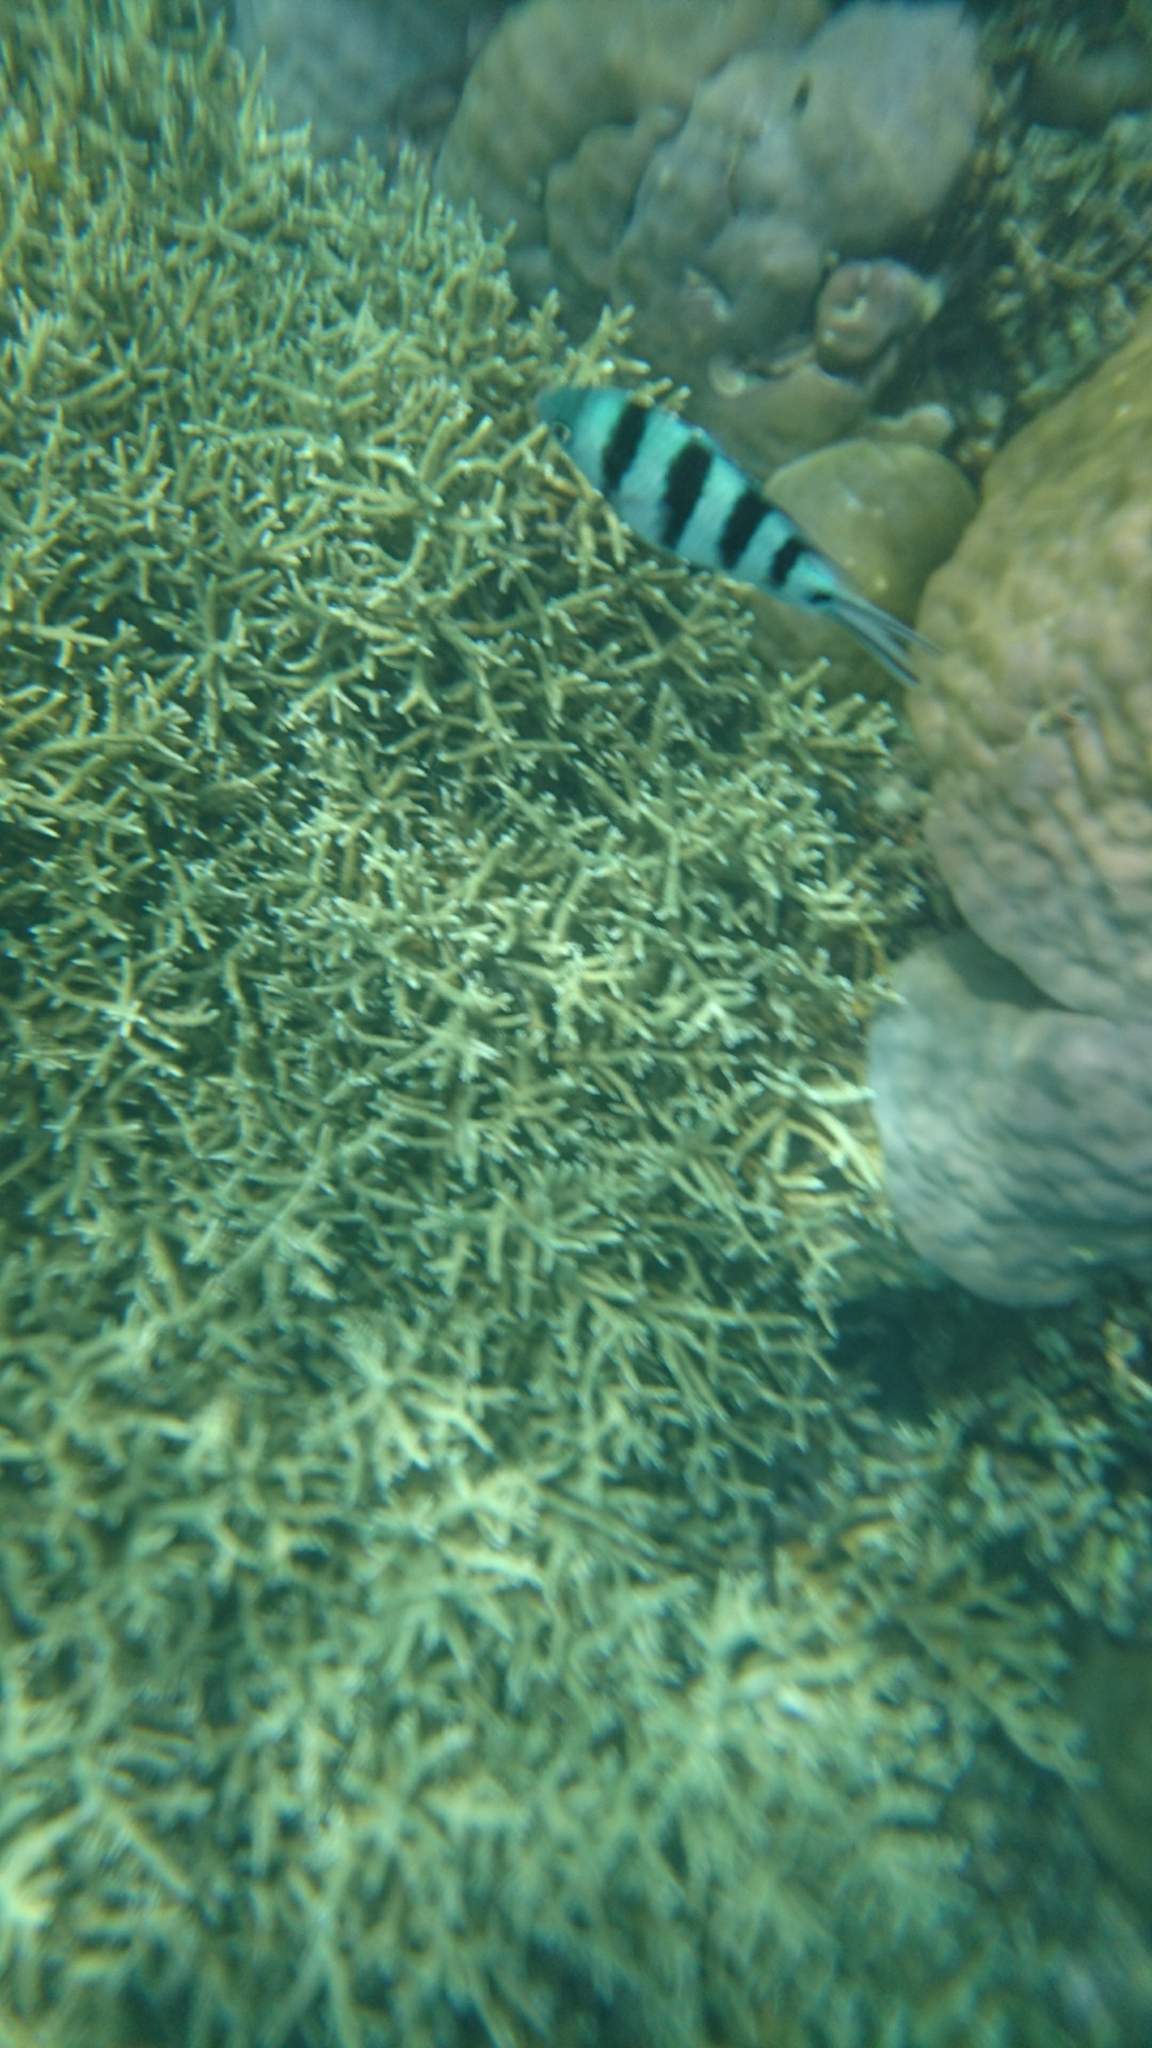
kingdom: Animalia
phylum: Chordata
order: Perciformes
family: Pomacentridae
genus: Abudefduf
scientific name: Abudefduf sexfasciatus
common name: Scissortail sergeant
